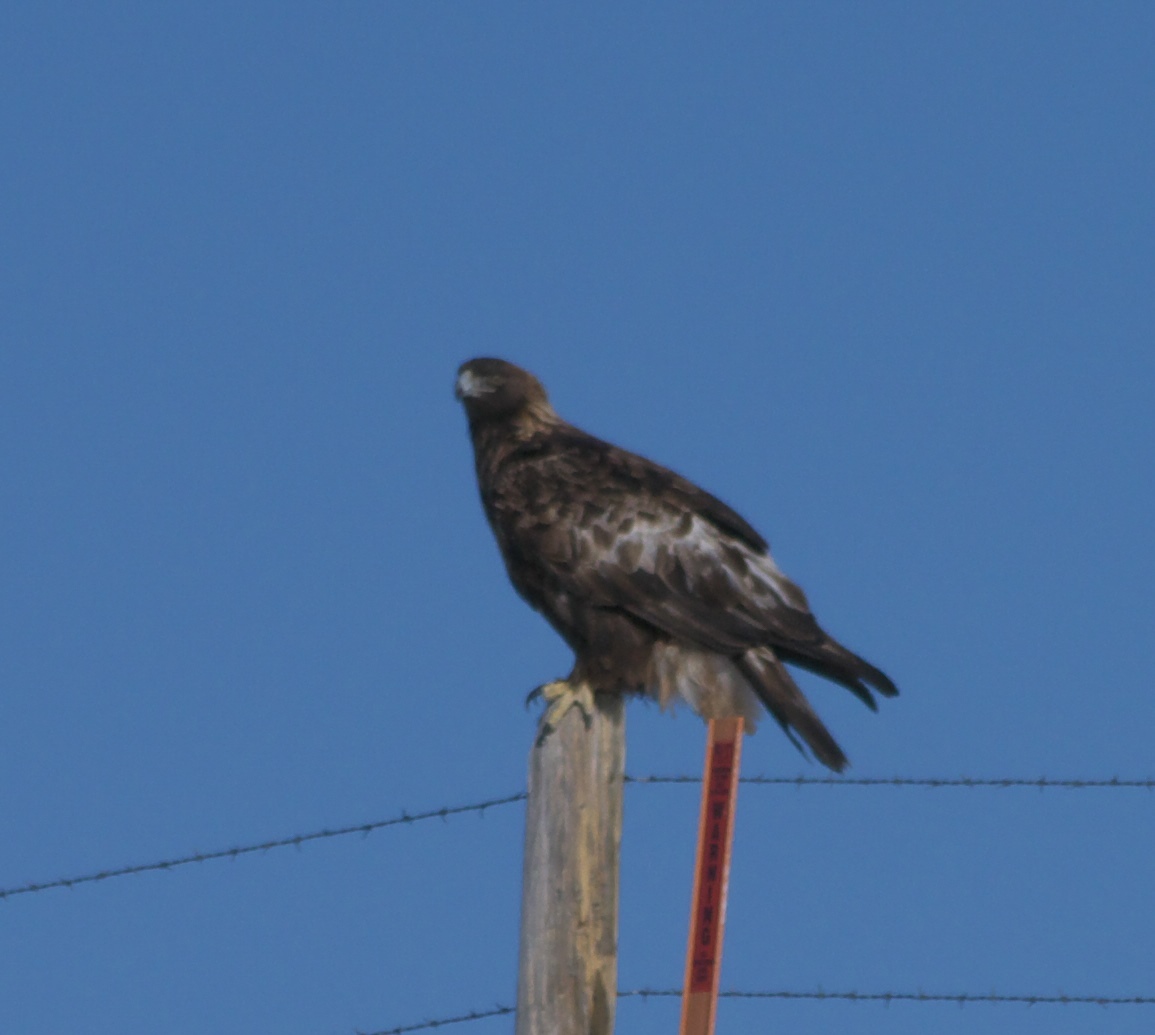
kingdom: Animalia
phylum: Chordata
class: Aves
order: Accipitriformes
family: Accipitridae
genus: Aquila
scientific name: Aquila chrysaetos
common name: Golden eagle
